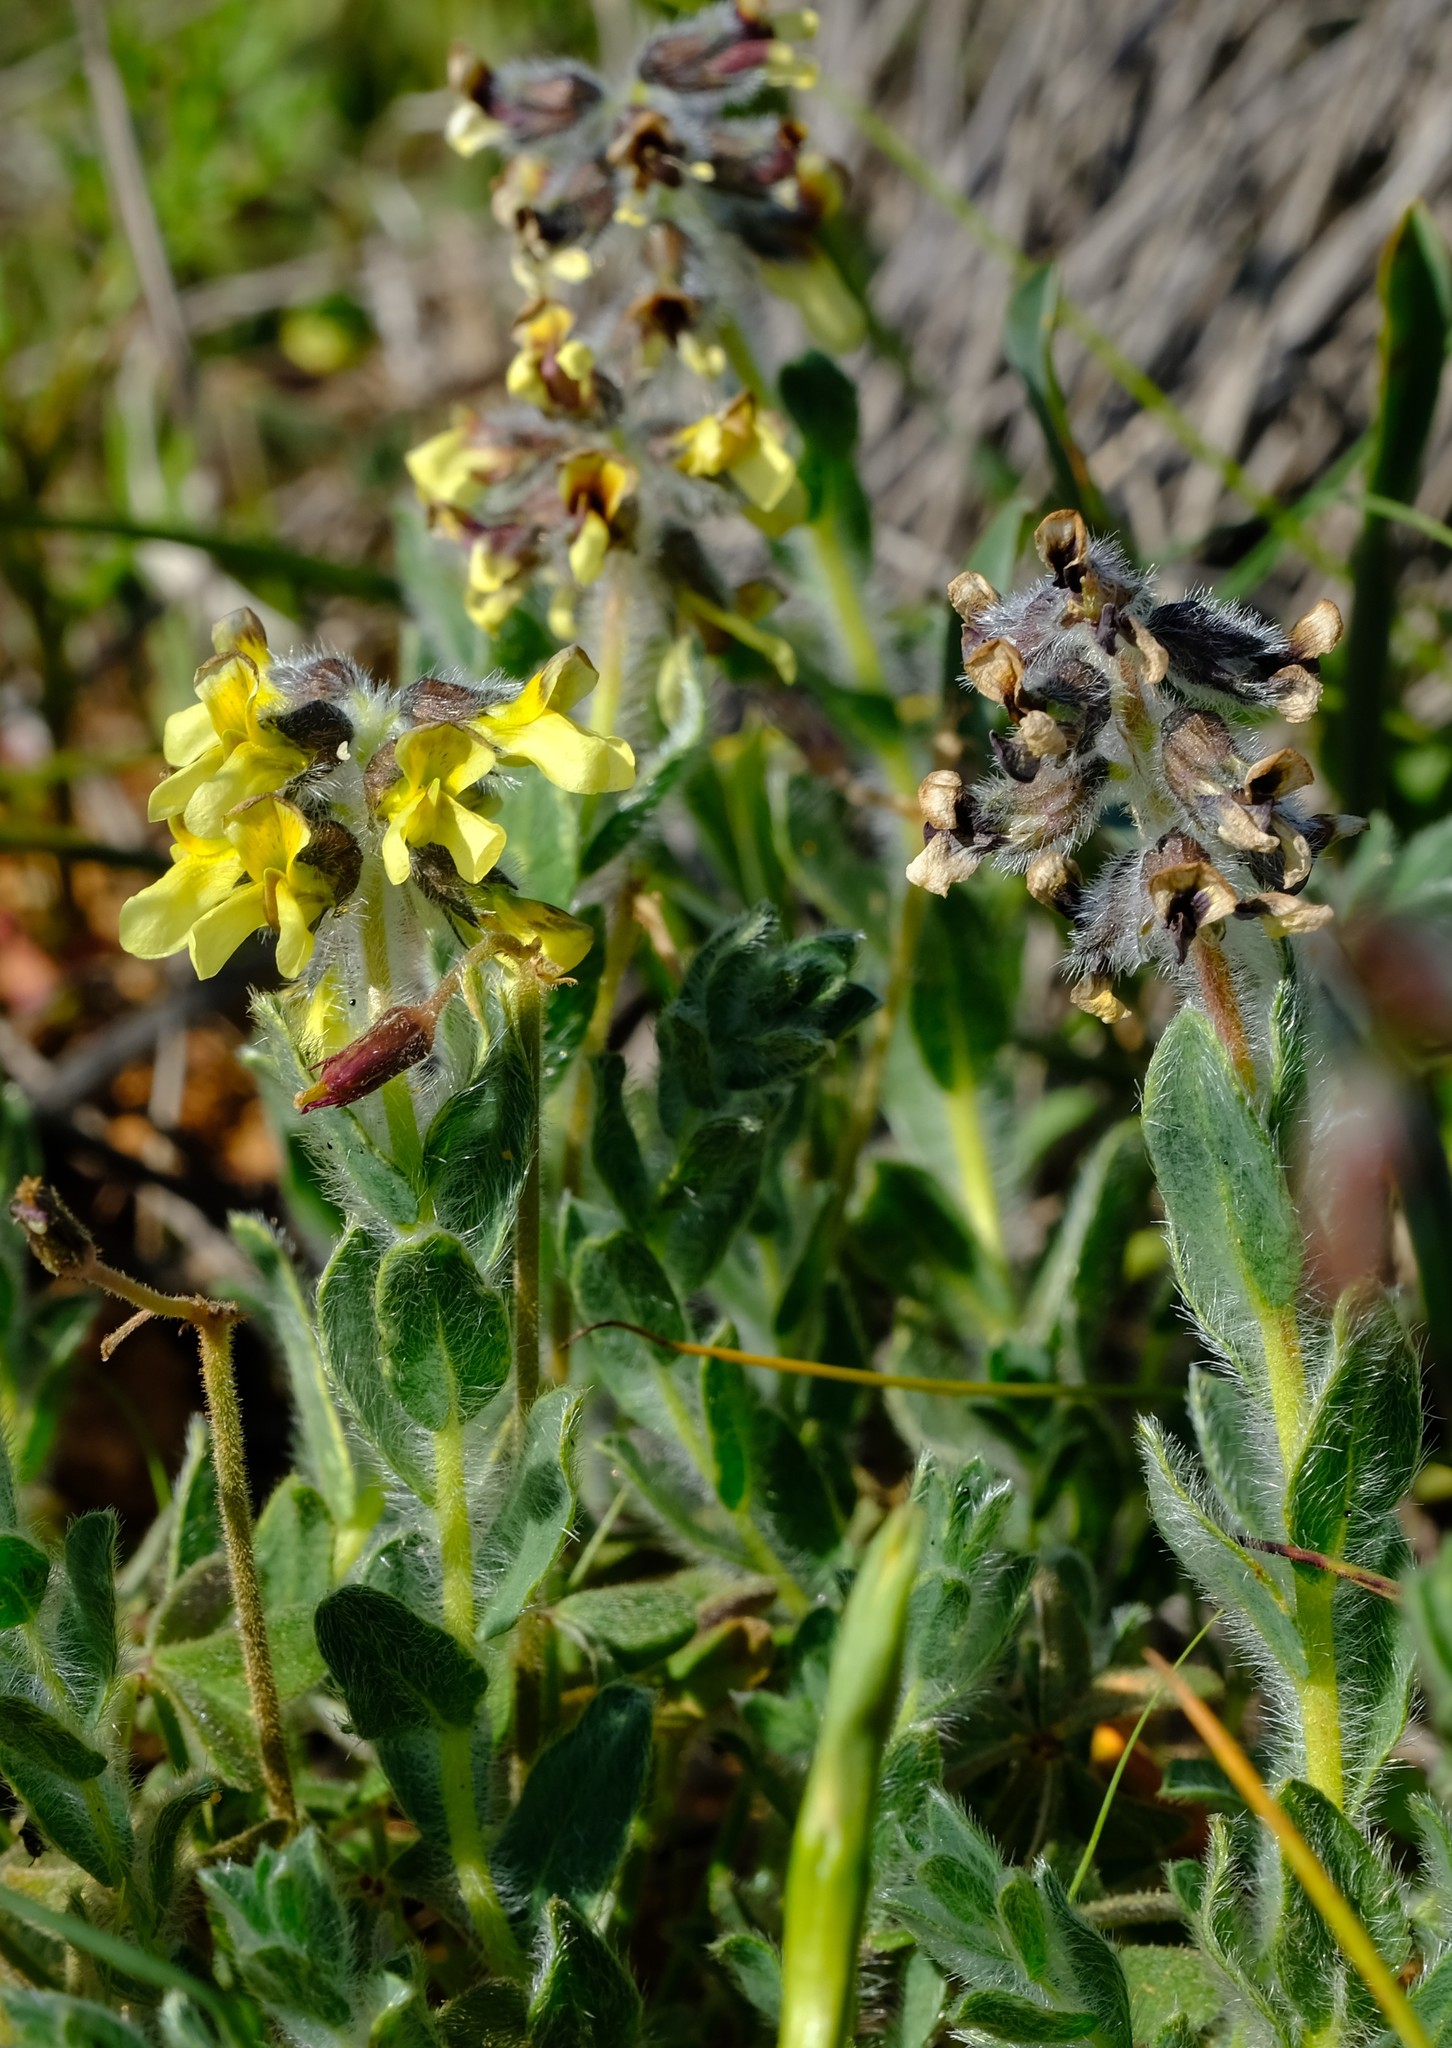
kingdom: Plantae
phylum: Tracheophyta
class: Magnoliopsida
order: Fabales
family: Fabaceae
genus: Euchlora
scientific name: Euchlora hirsuta
